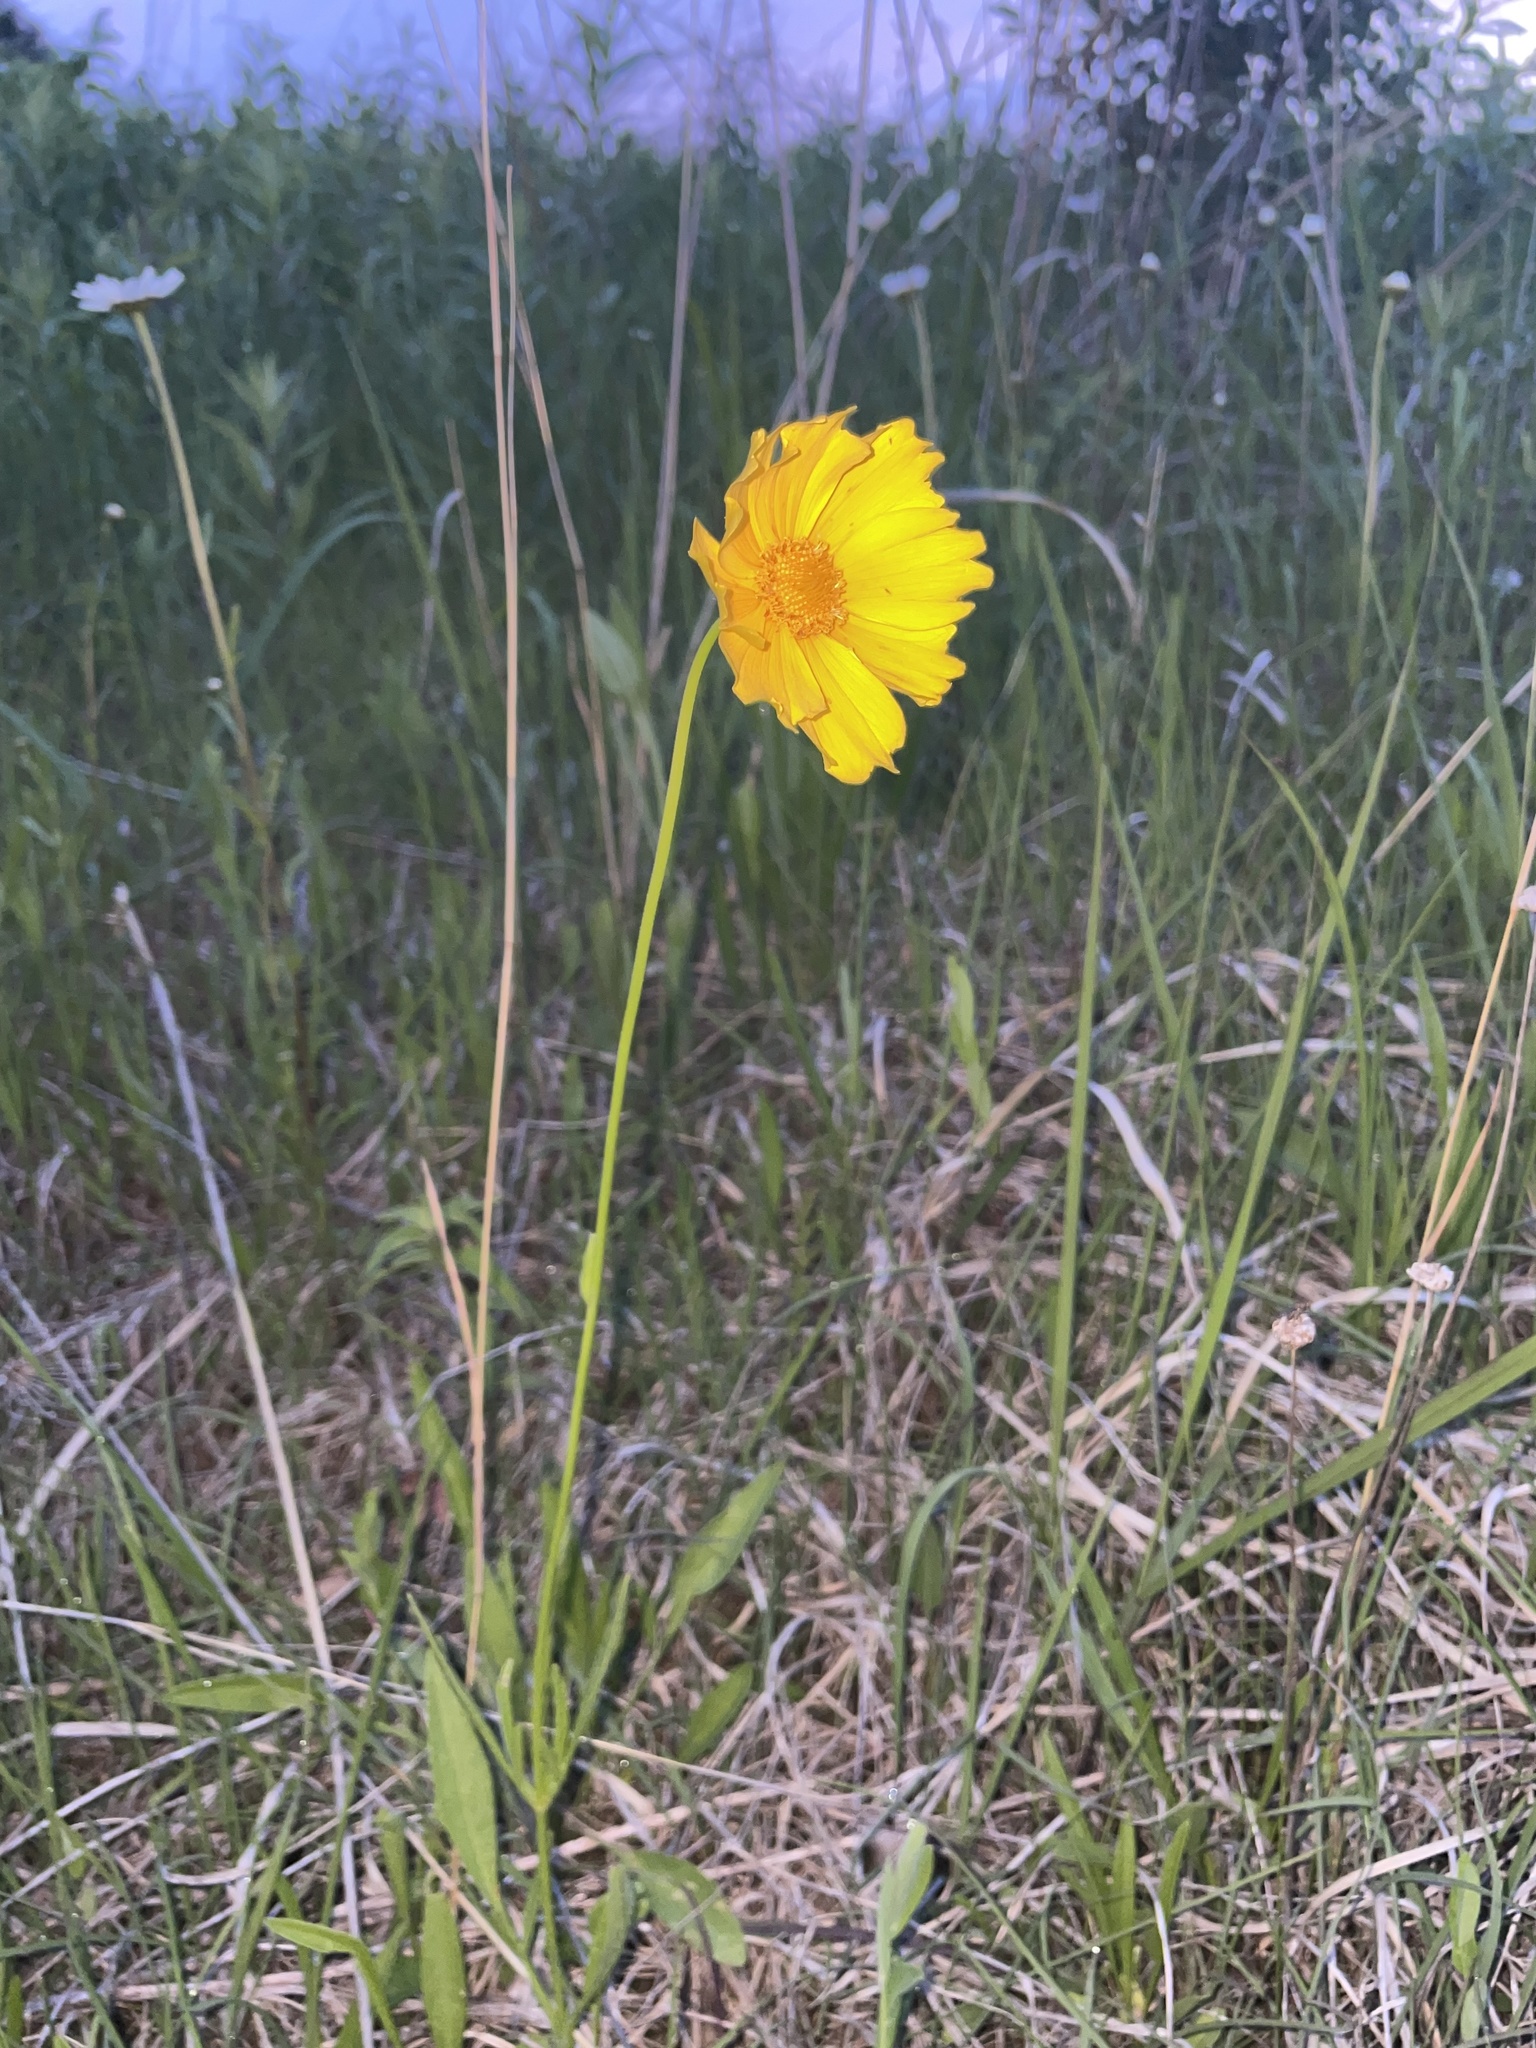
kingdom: Plantae
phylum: Tracheophyta
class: Magnoliopsida
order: Asterales
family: Asteraceae
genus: Coreopsis
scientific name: Coreopsis lanceolata
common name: Garden coreopsis
